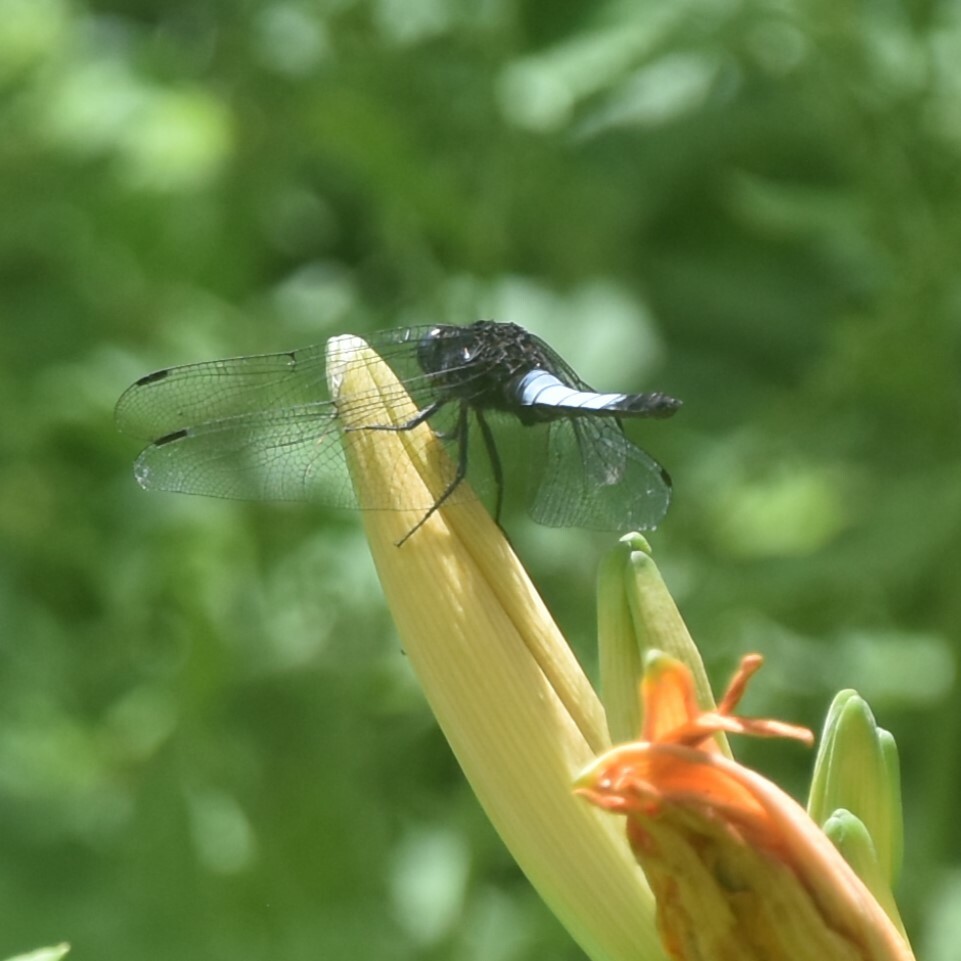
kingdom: Animalia
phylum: Arthropoda
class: Insecta
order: Odonata
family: Libellulidae
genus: Orthetrum
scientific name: Orthetrum triangulare
